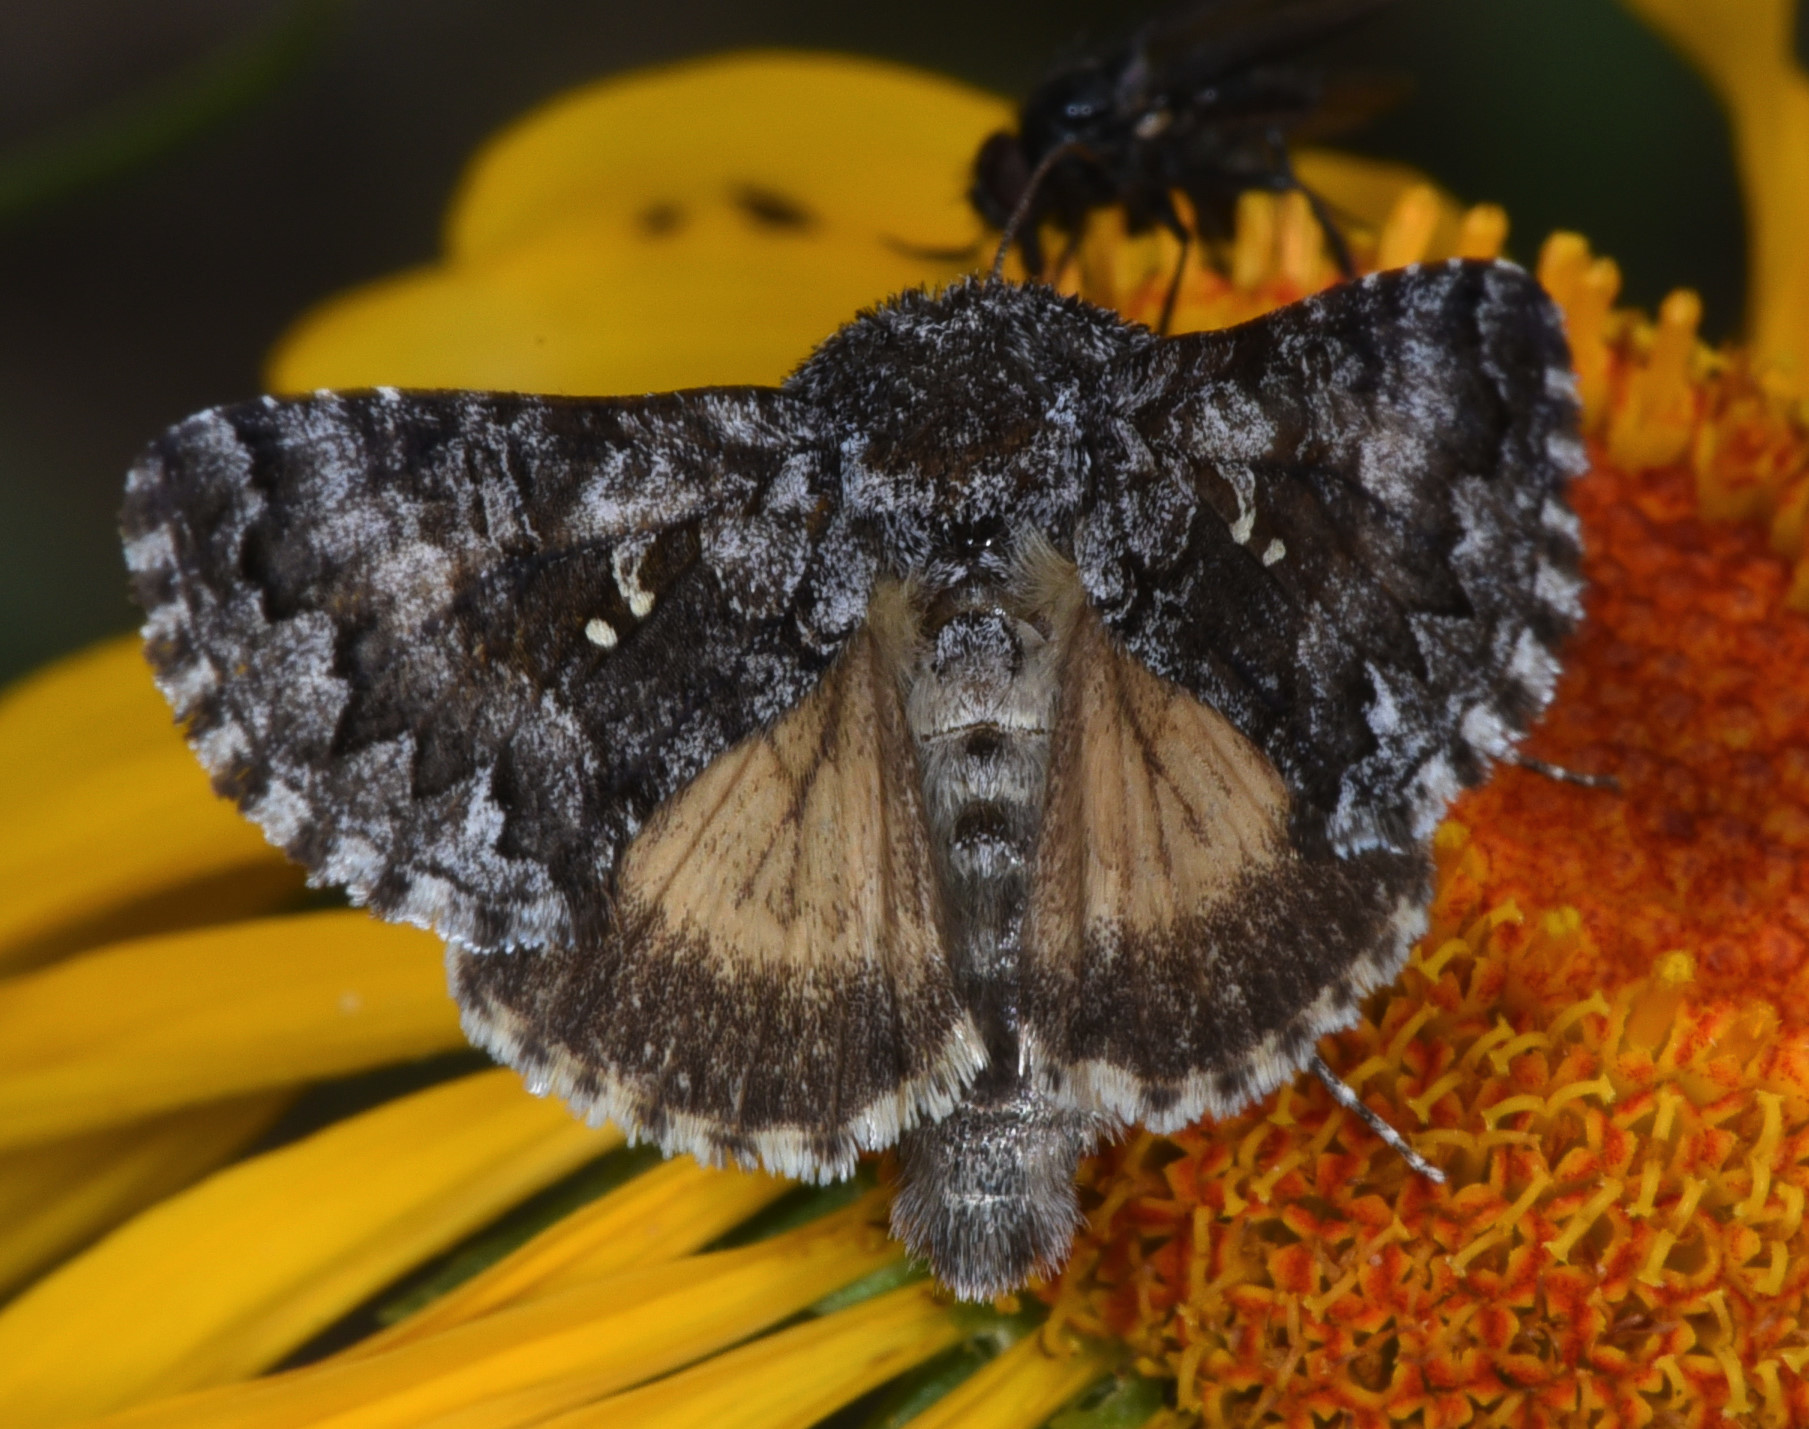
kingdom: Animalia
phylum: Arthropoda
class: Insecta
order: Lepidoptera
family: Noctuidae
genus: Syngrapha
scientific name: Syngrapha angulidens
